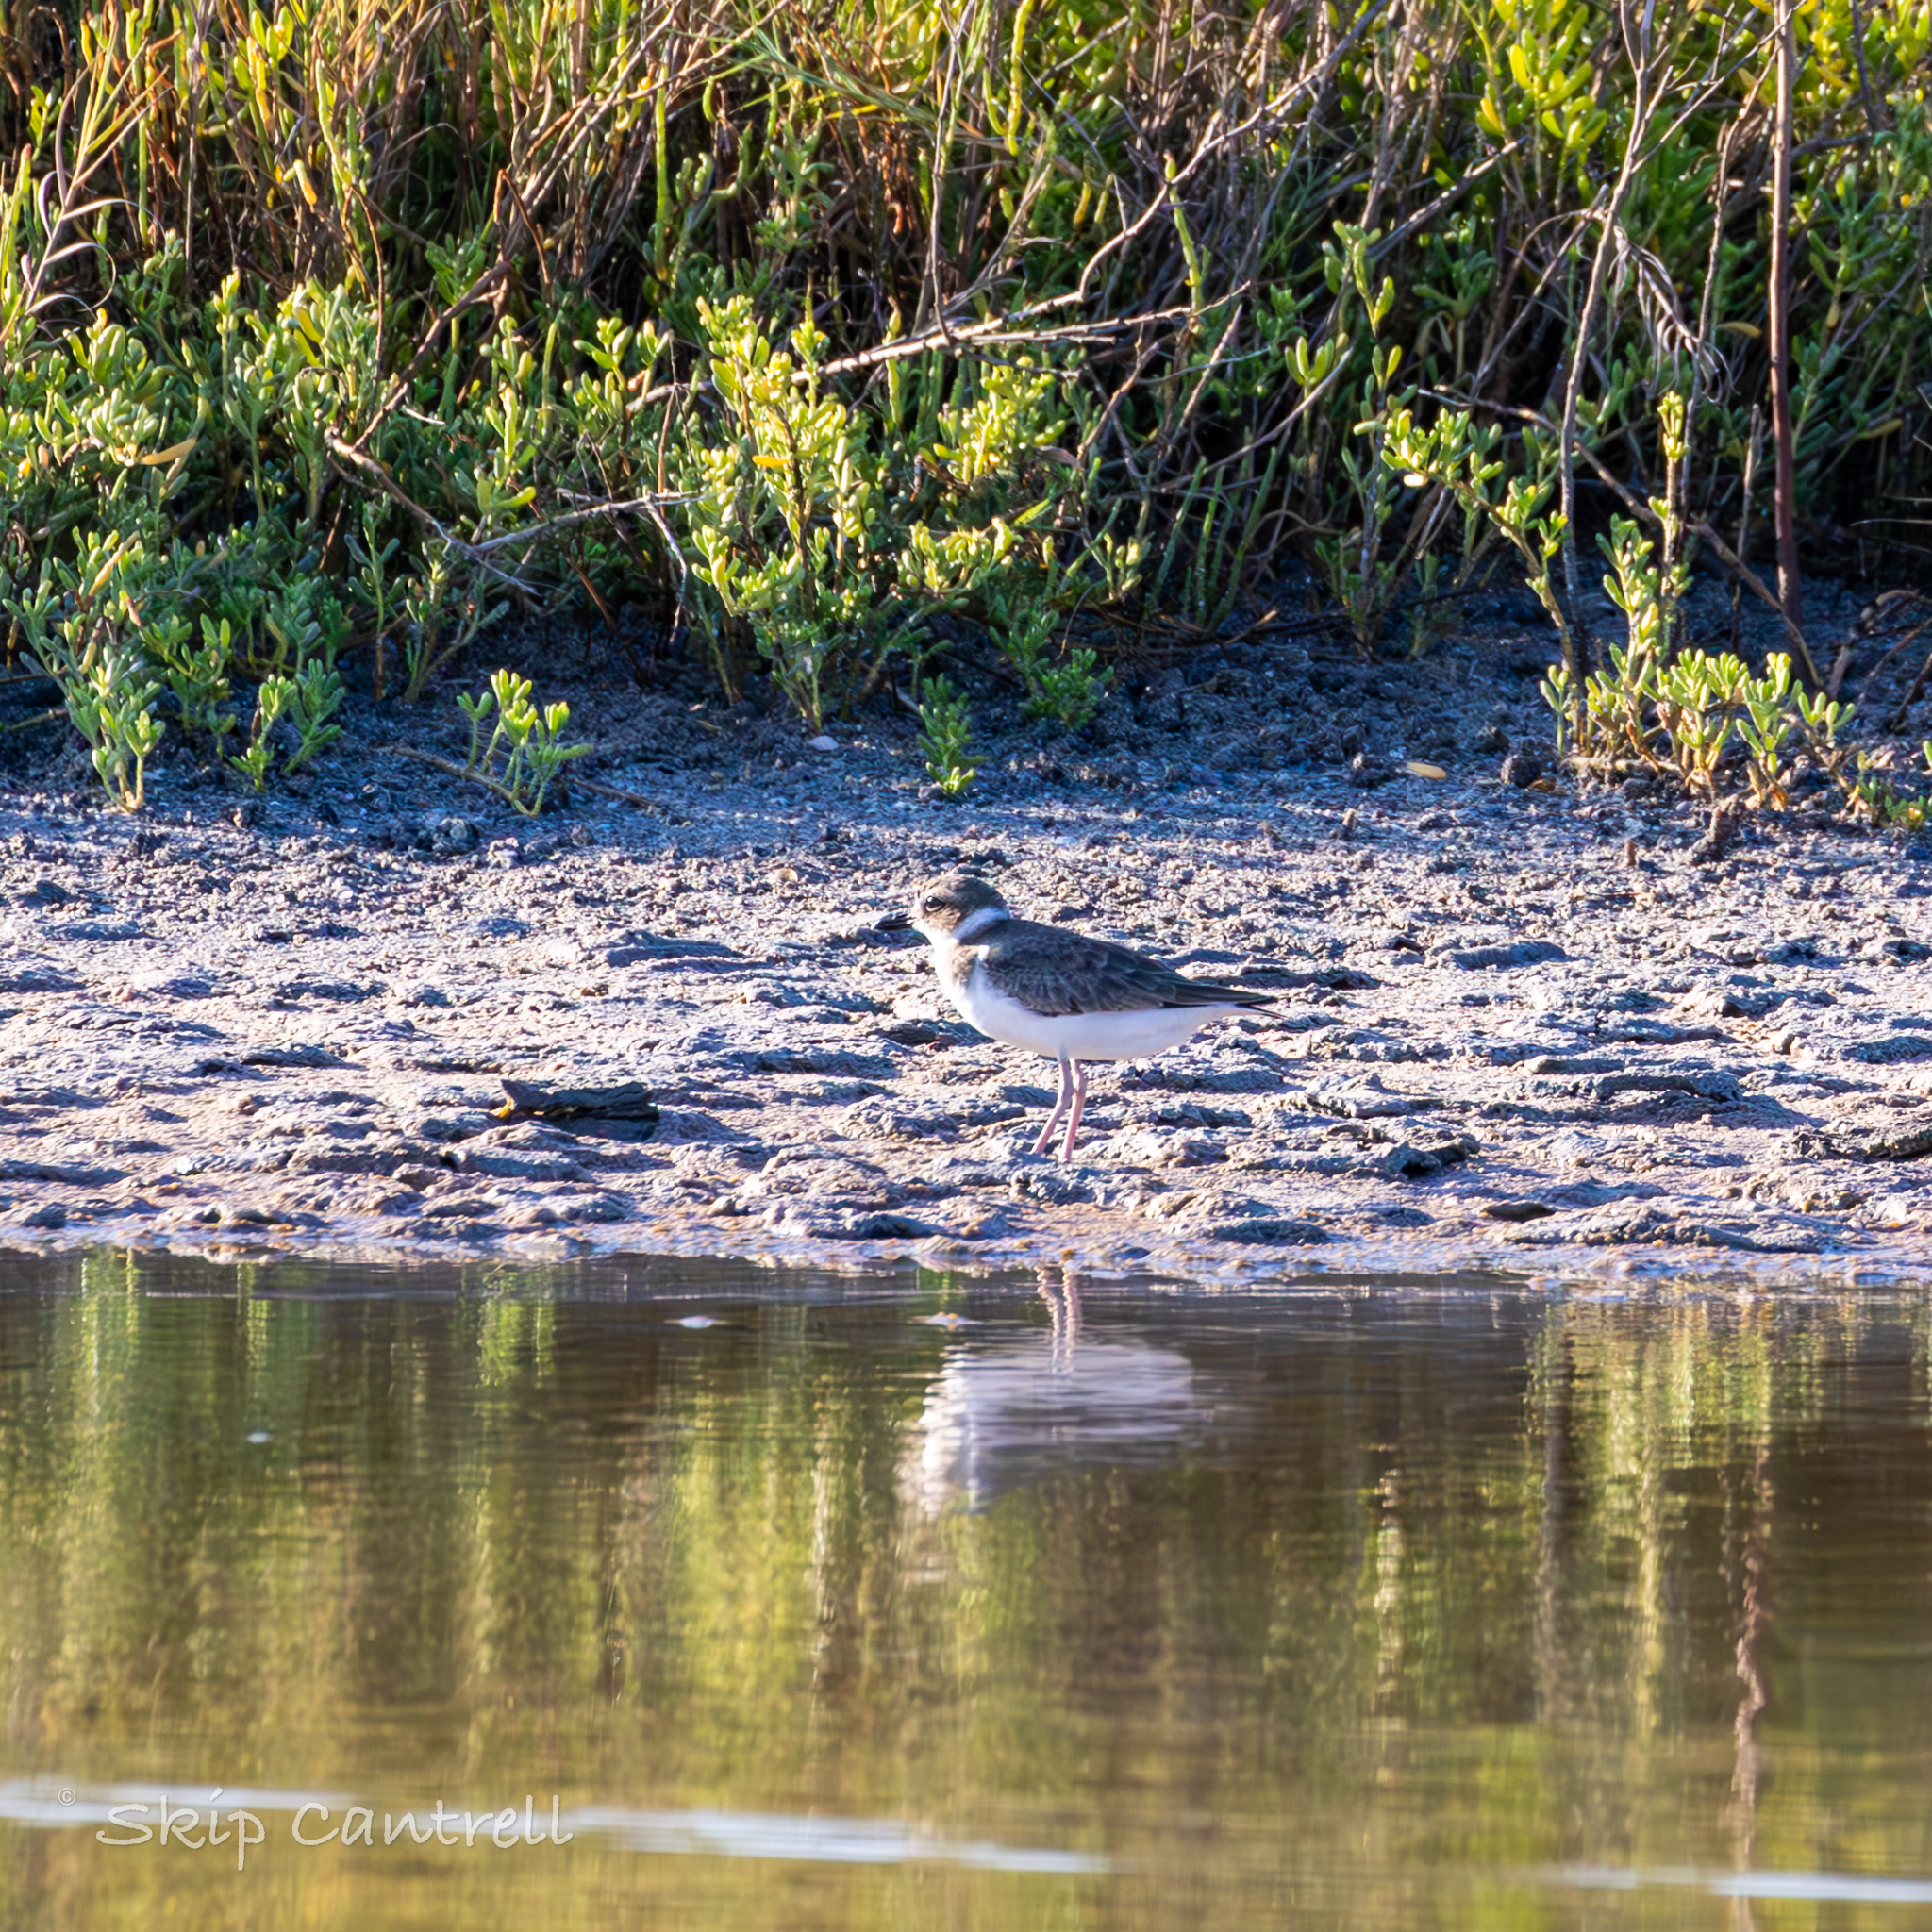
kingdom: Animalia
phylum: Chordata
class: Aves
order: Charadriiformes
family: Charadriidae
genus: Anarhynchus
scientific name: Anarhynchus
